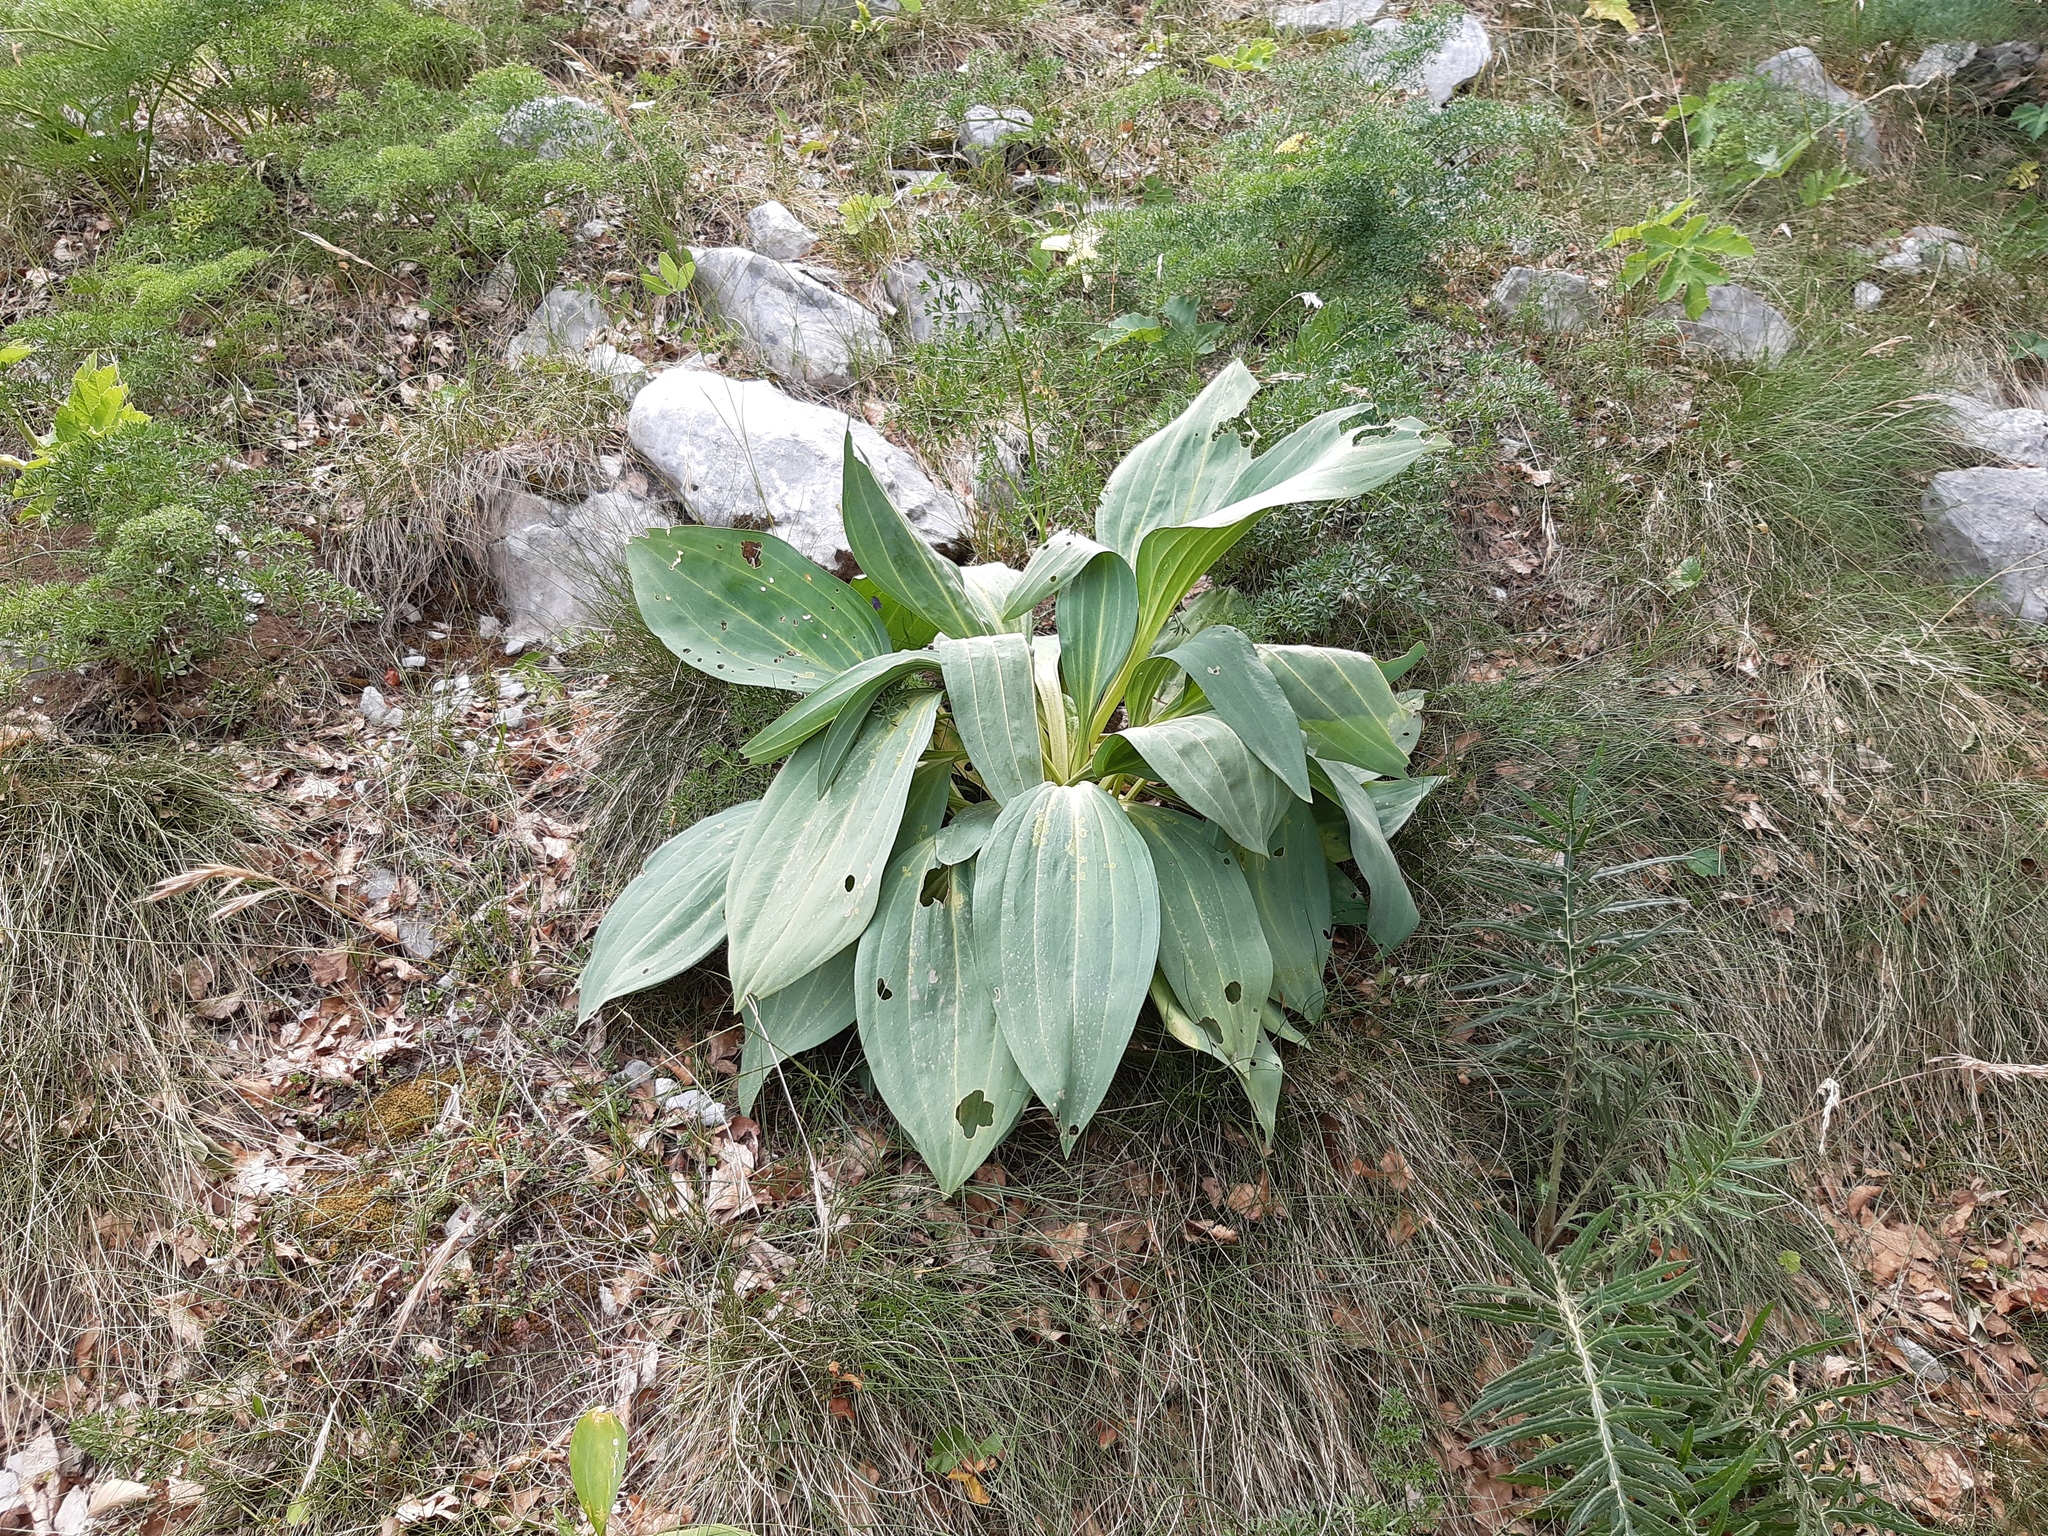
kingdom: Plantae
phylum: Tracheophyta
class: Magnoliopsida
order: Gentianales
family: Gentianaceae
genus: Gentiana
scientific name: Gentiana lutea
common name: Great yellow gentian
